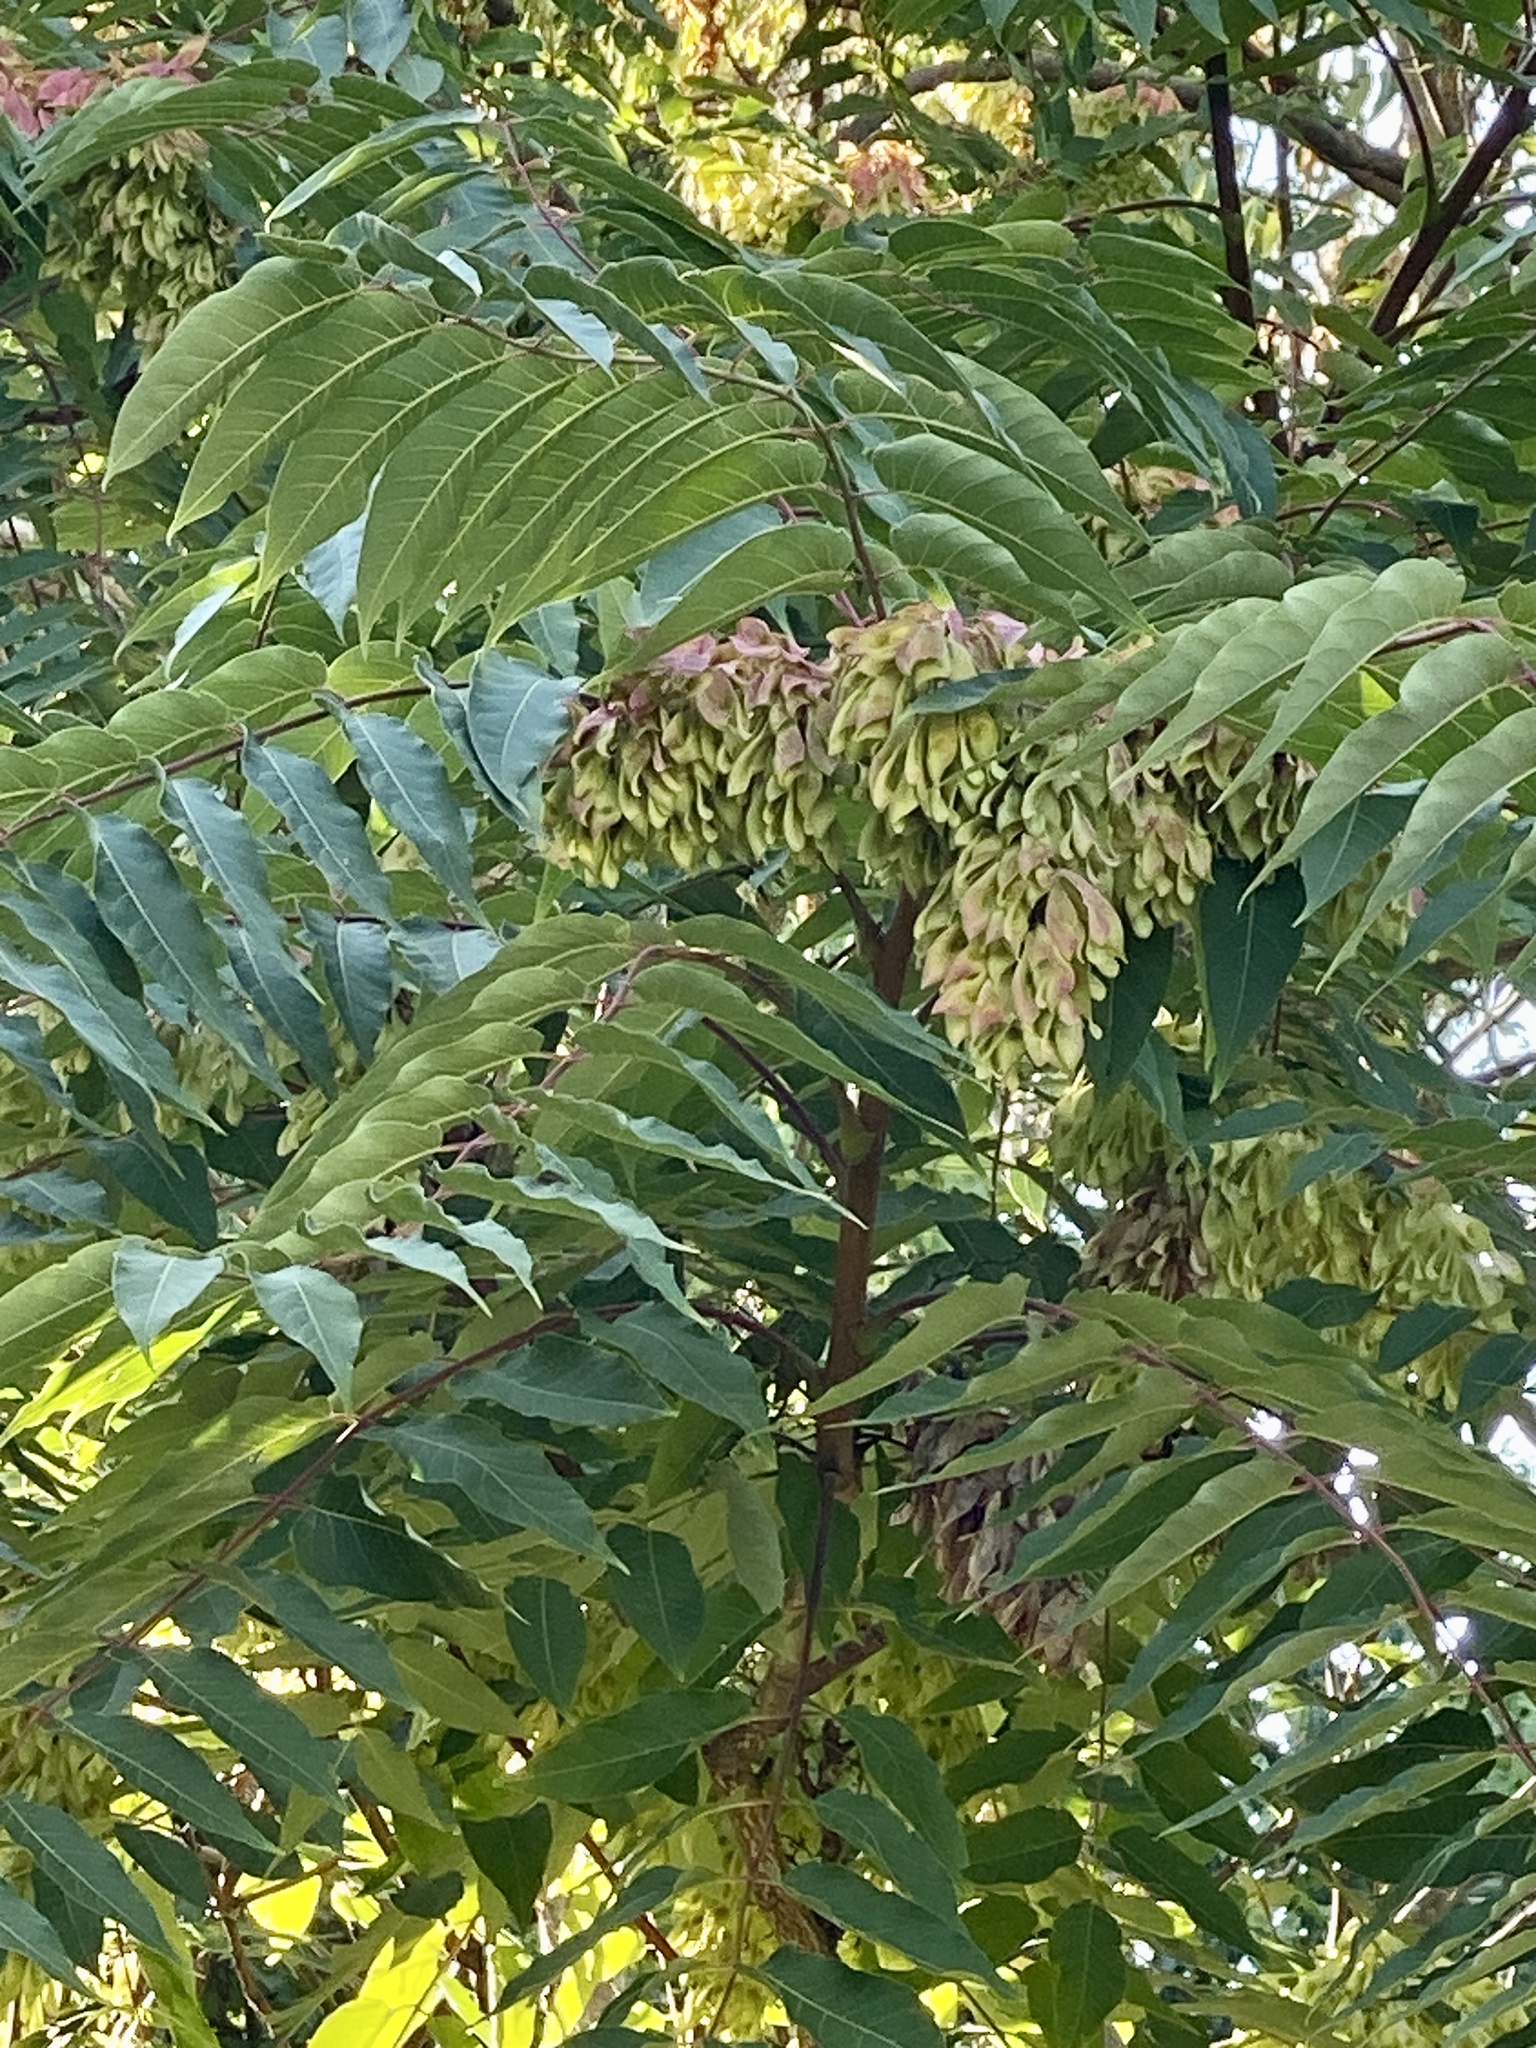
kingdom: Plantae
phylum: Tracheophyta
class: Magnoliopsida
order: Sapindales
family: Simaroubaceae
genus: Ailanthus
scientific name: Ailanthus altissima
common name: Tree-of-heaven
